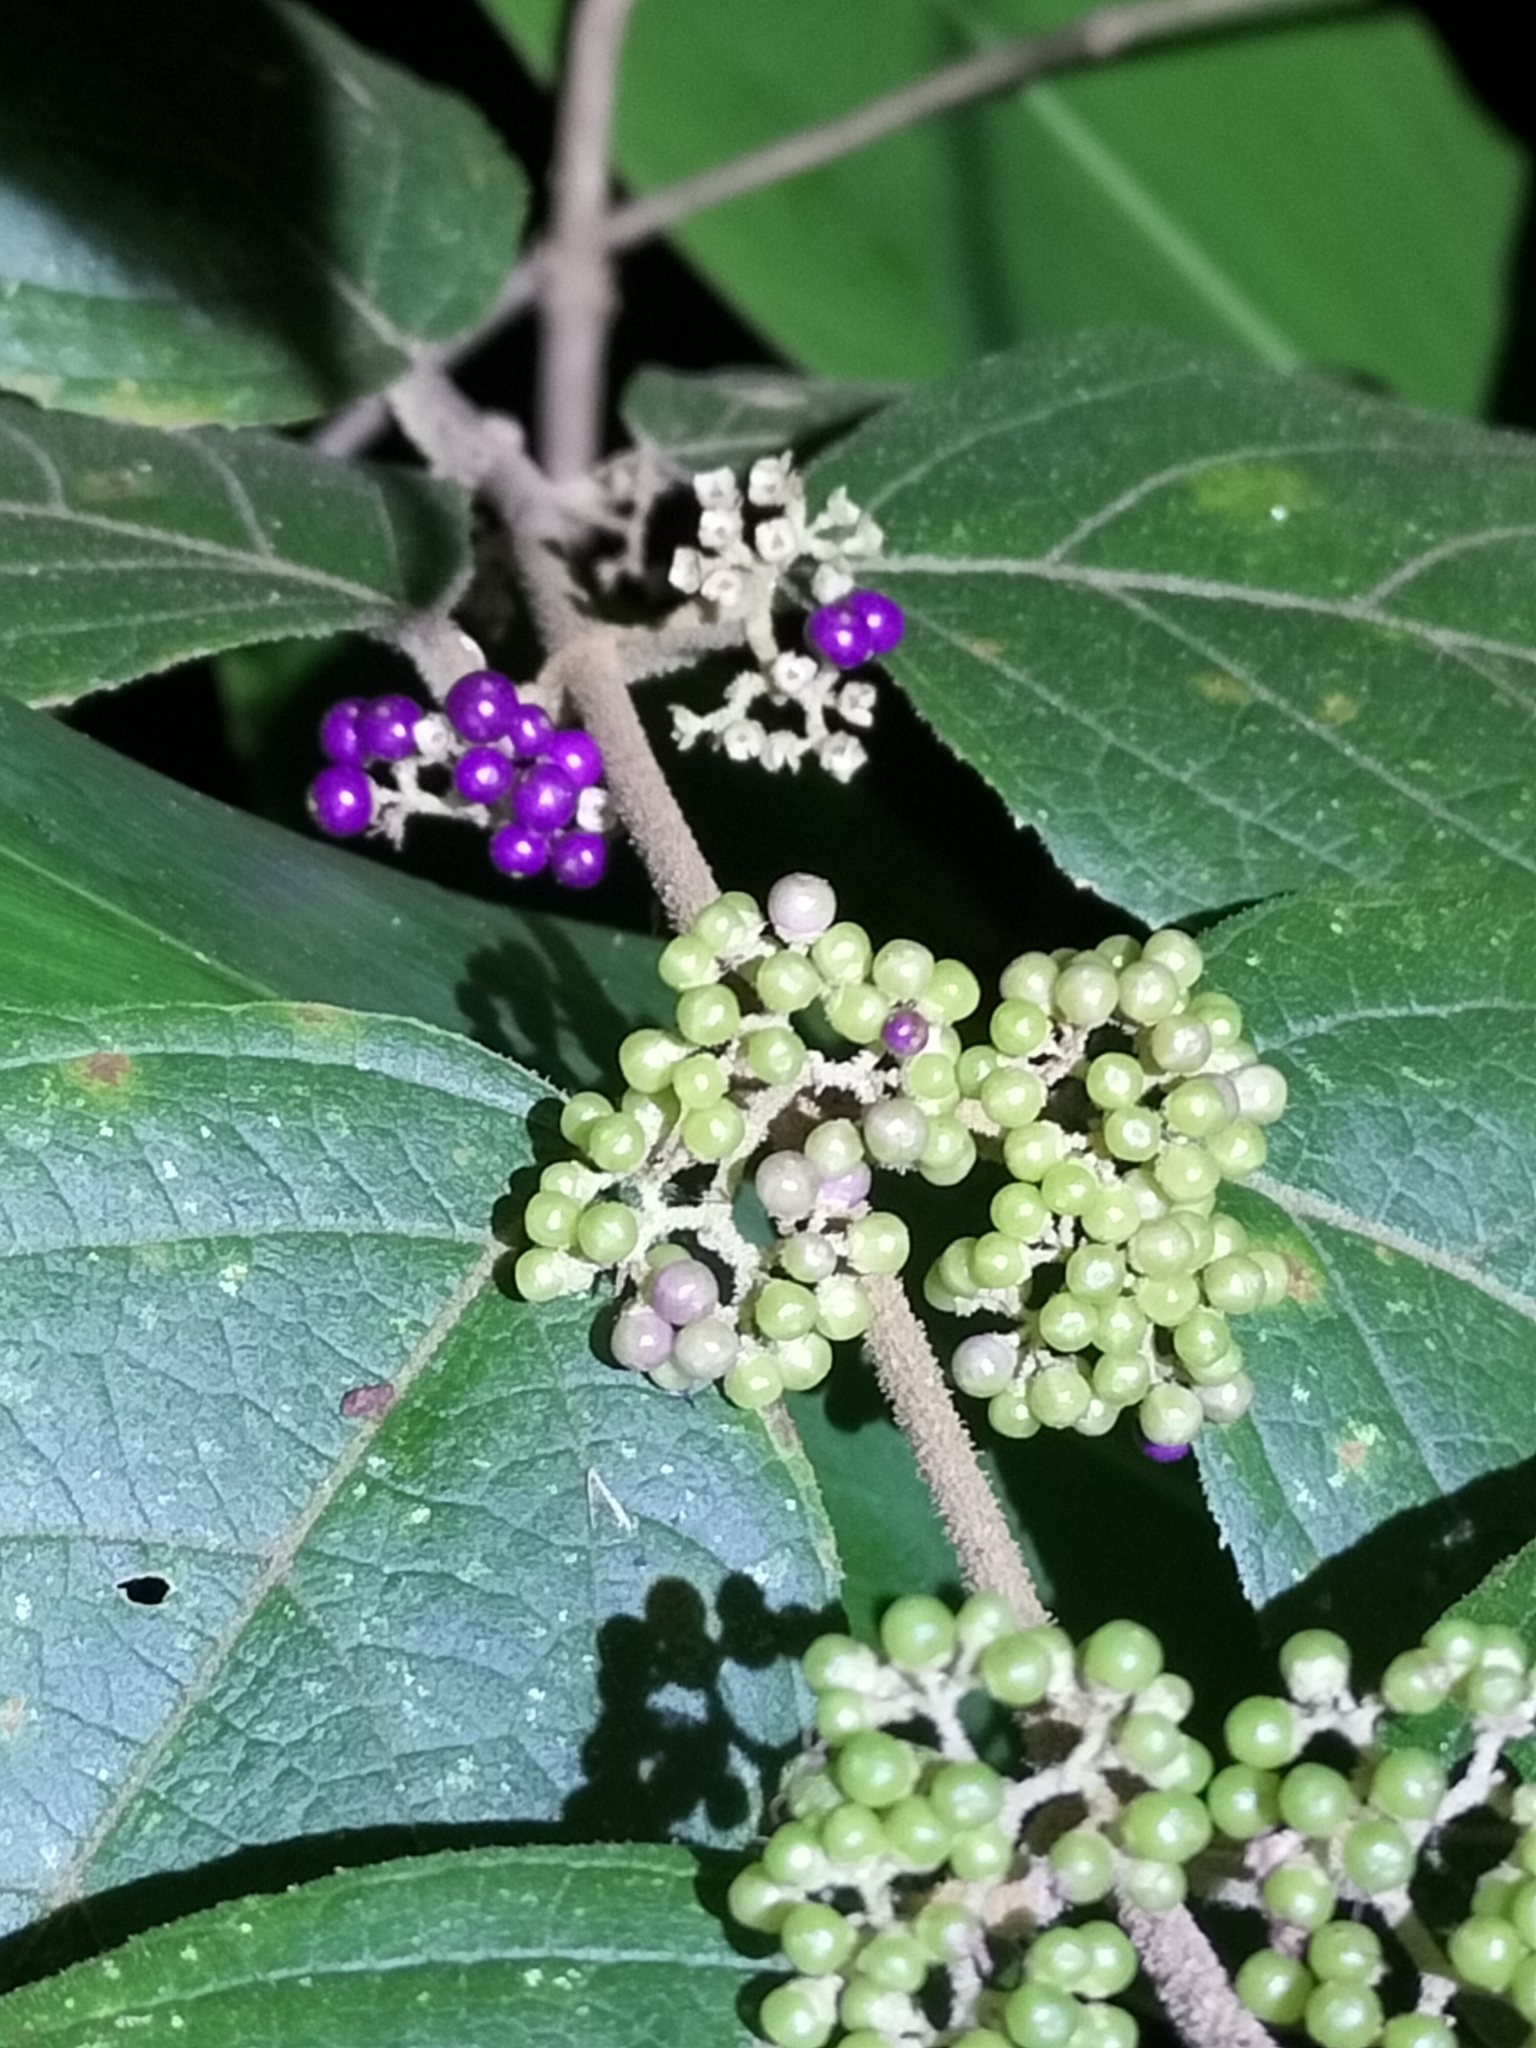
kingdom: Plantae
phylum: Tracheophyta
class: Magnoliopsida
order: Lamiales
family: Lamiaceae
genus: Callicarpa
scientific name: Callicarpa pedunculata
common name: Velvetleaf
